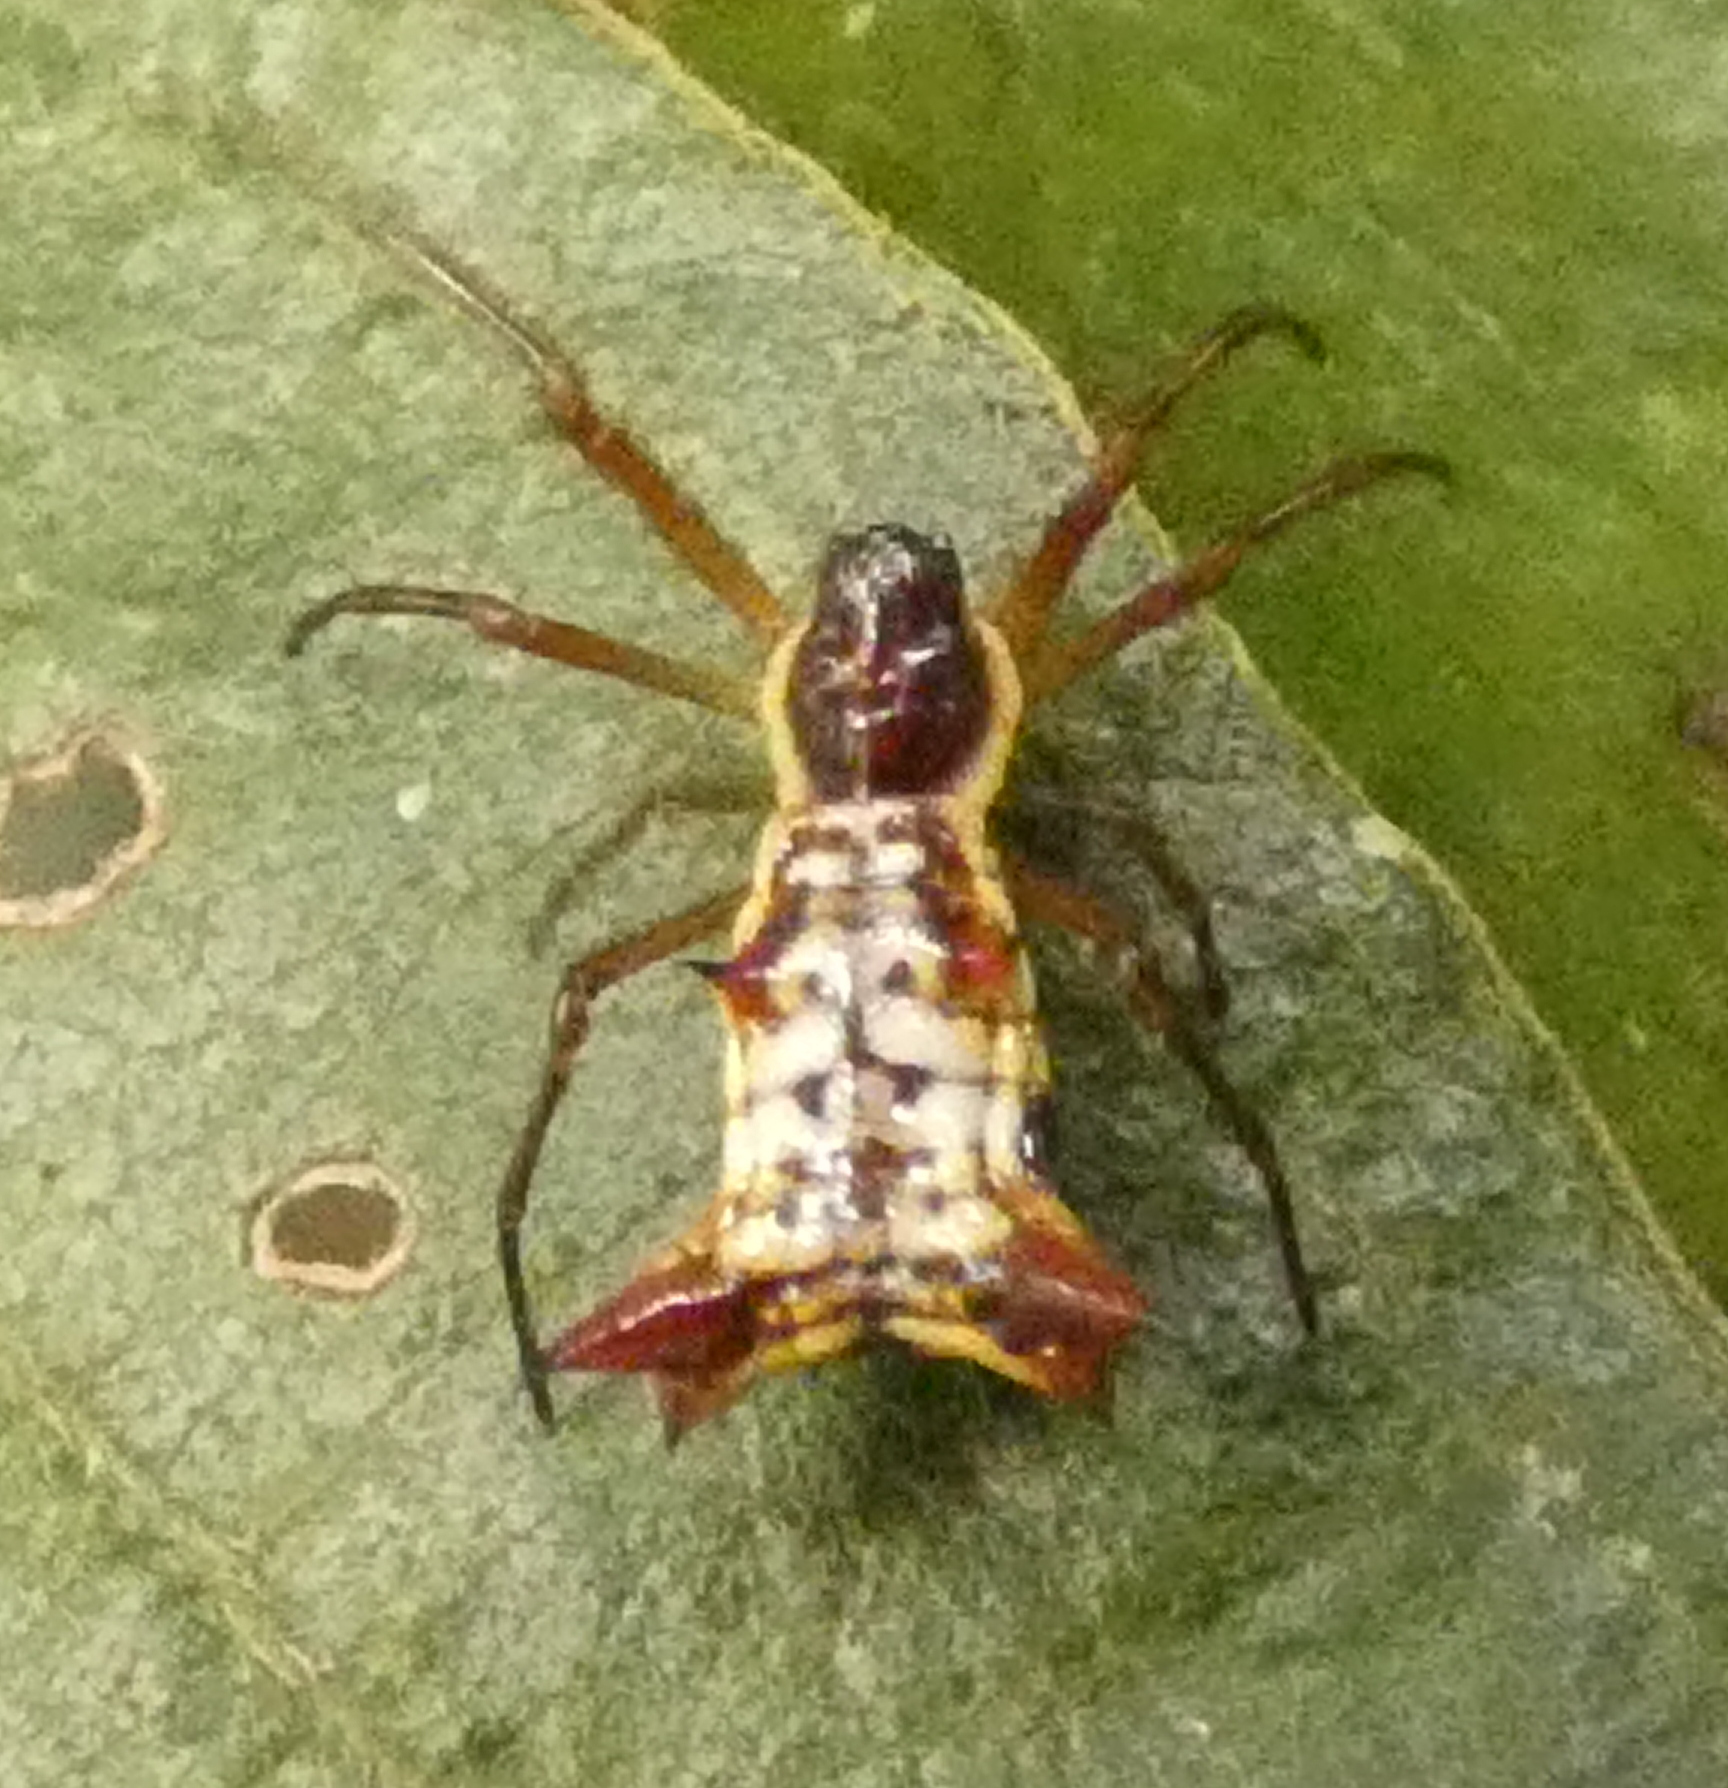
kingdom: Animalia
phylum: Arthropoda
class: Arachnida
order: Araneae
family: Araneidae
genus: Micrathena
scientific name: Micrathena fissispina
